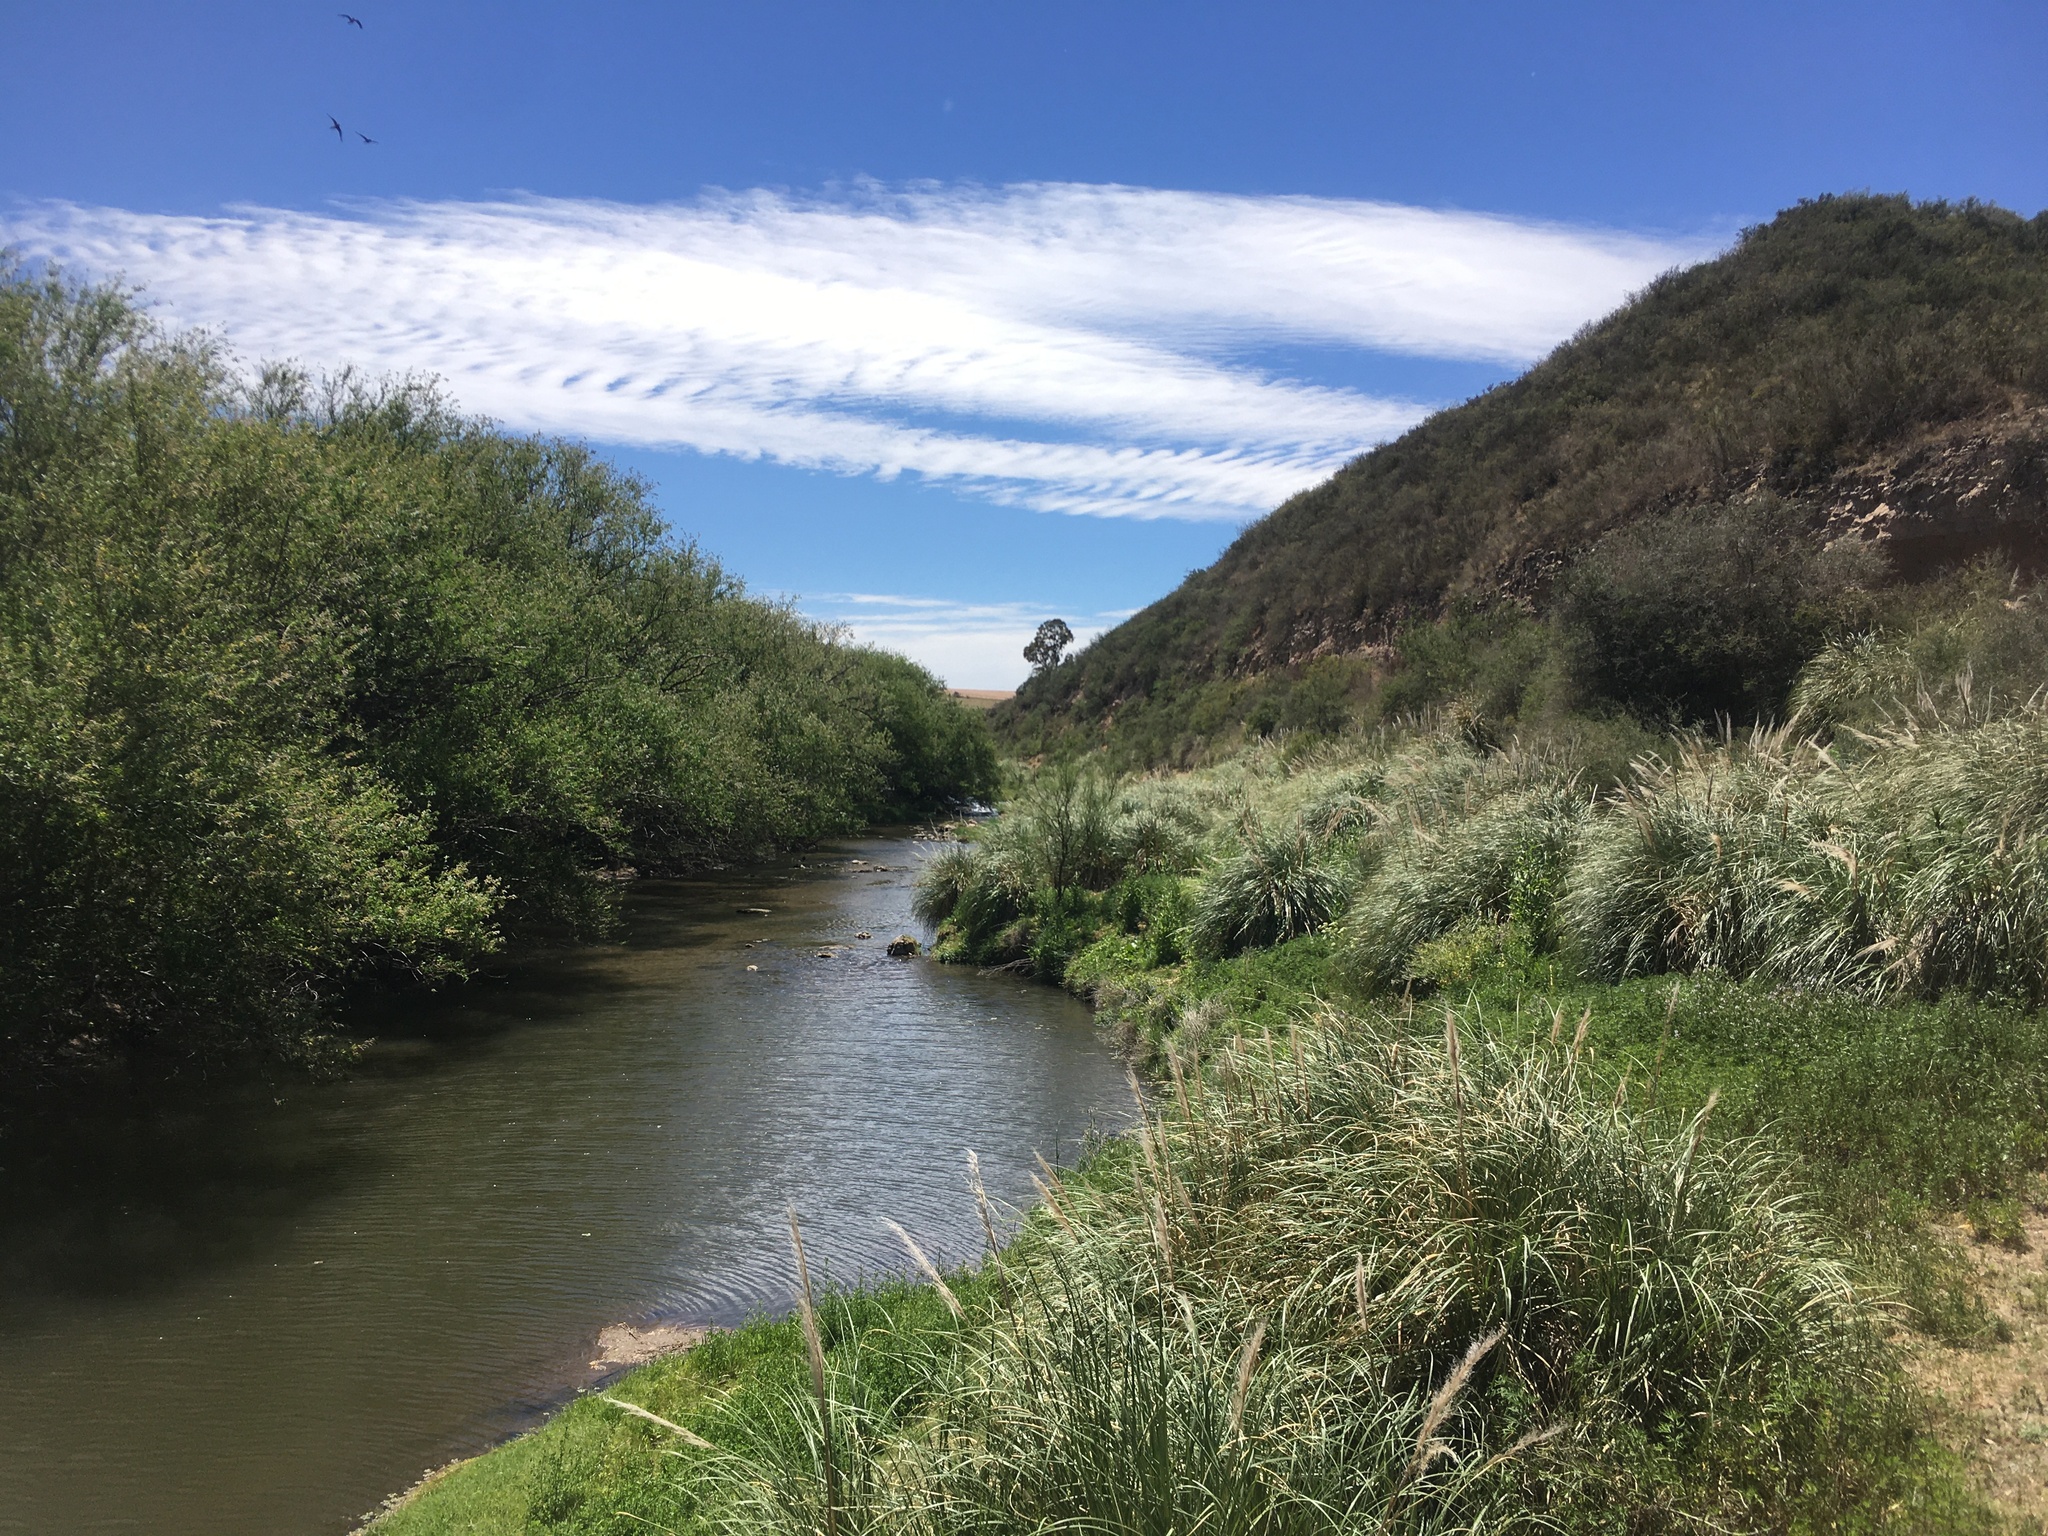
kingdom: Plantae
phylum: Tracheophyta
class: Liliopsida
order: Poales
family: Poaceae
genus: Cortaderia
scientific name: Cortaderia selloana
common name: Uruguayan pampas grass
